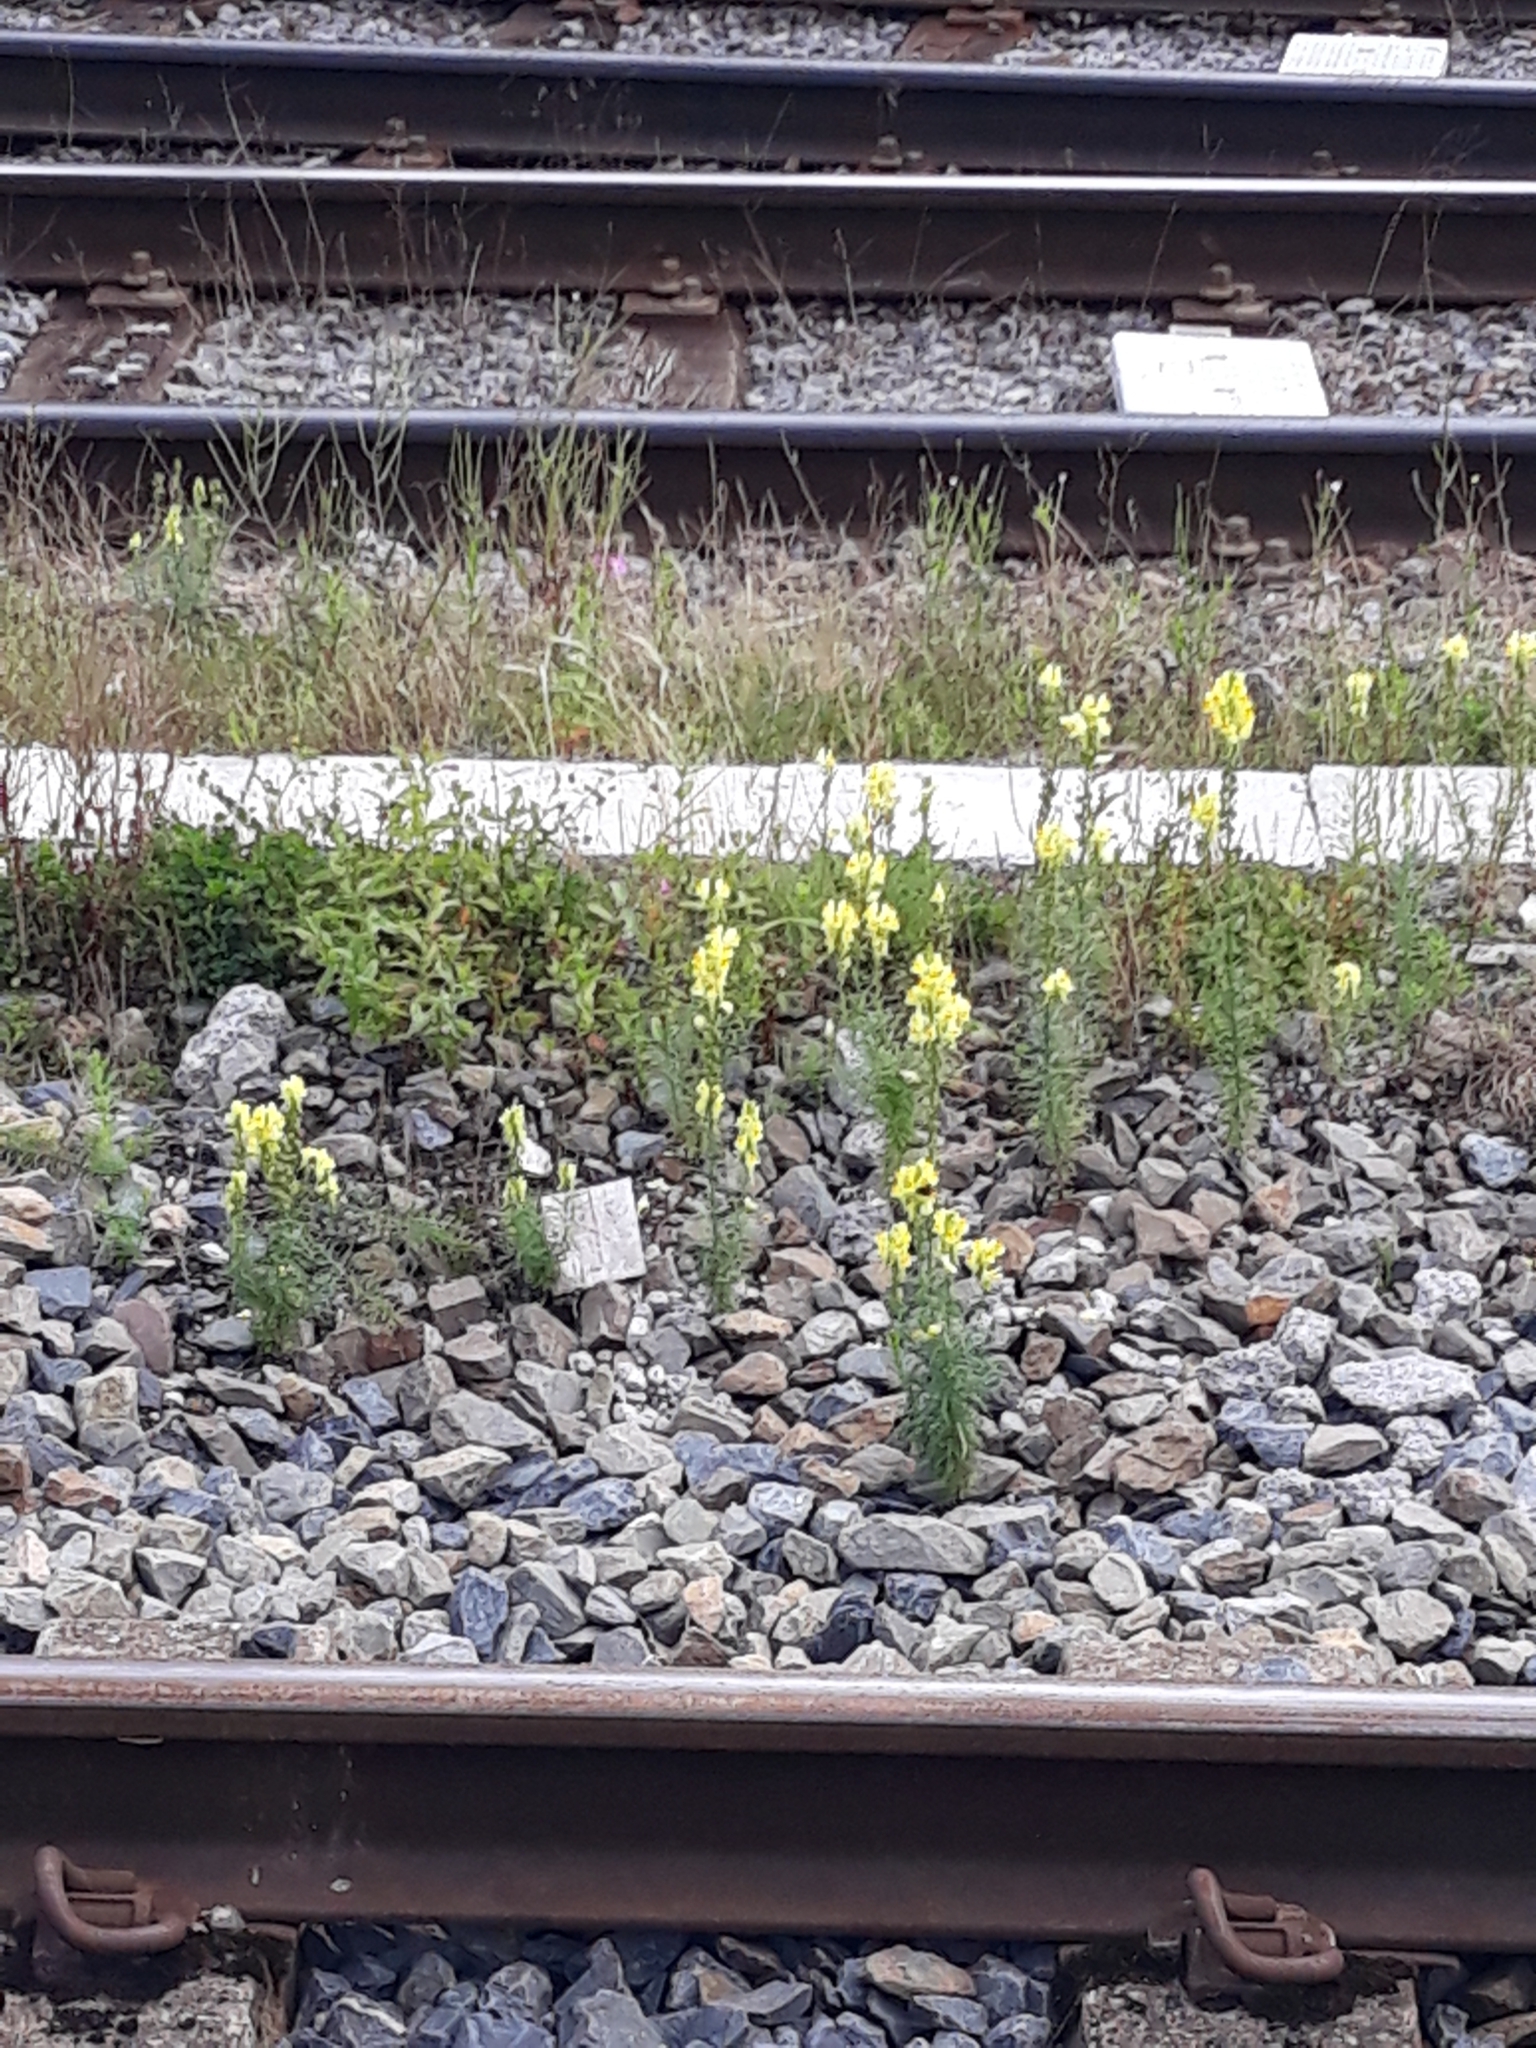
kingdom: Plantae
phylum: Tracheophyta
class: Magnoliopsida
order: Lamiales
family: Plantaginaceae
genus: Linaria
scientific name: Linaria vulgaris
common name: Butter and eggs
